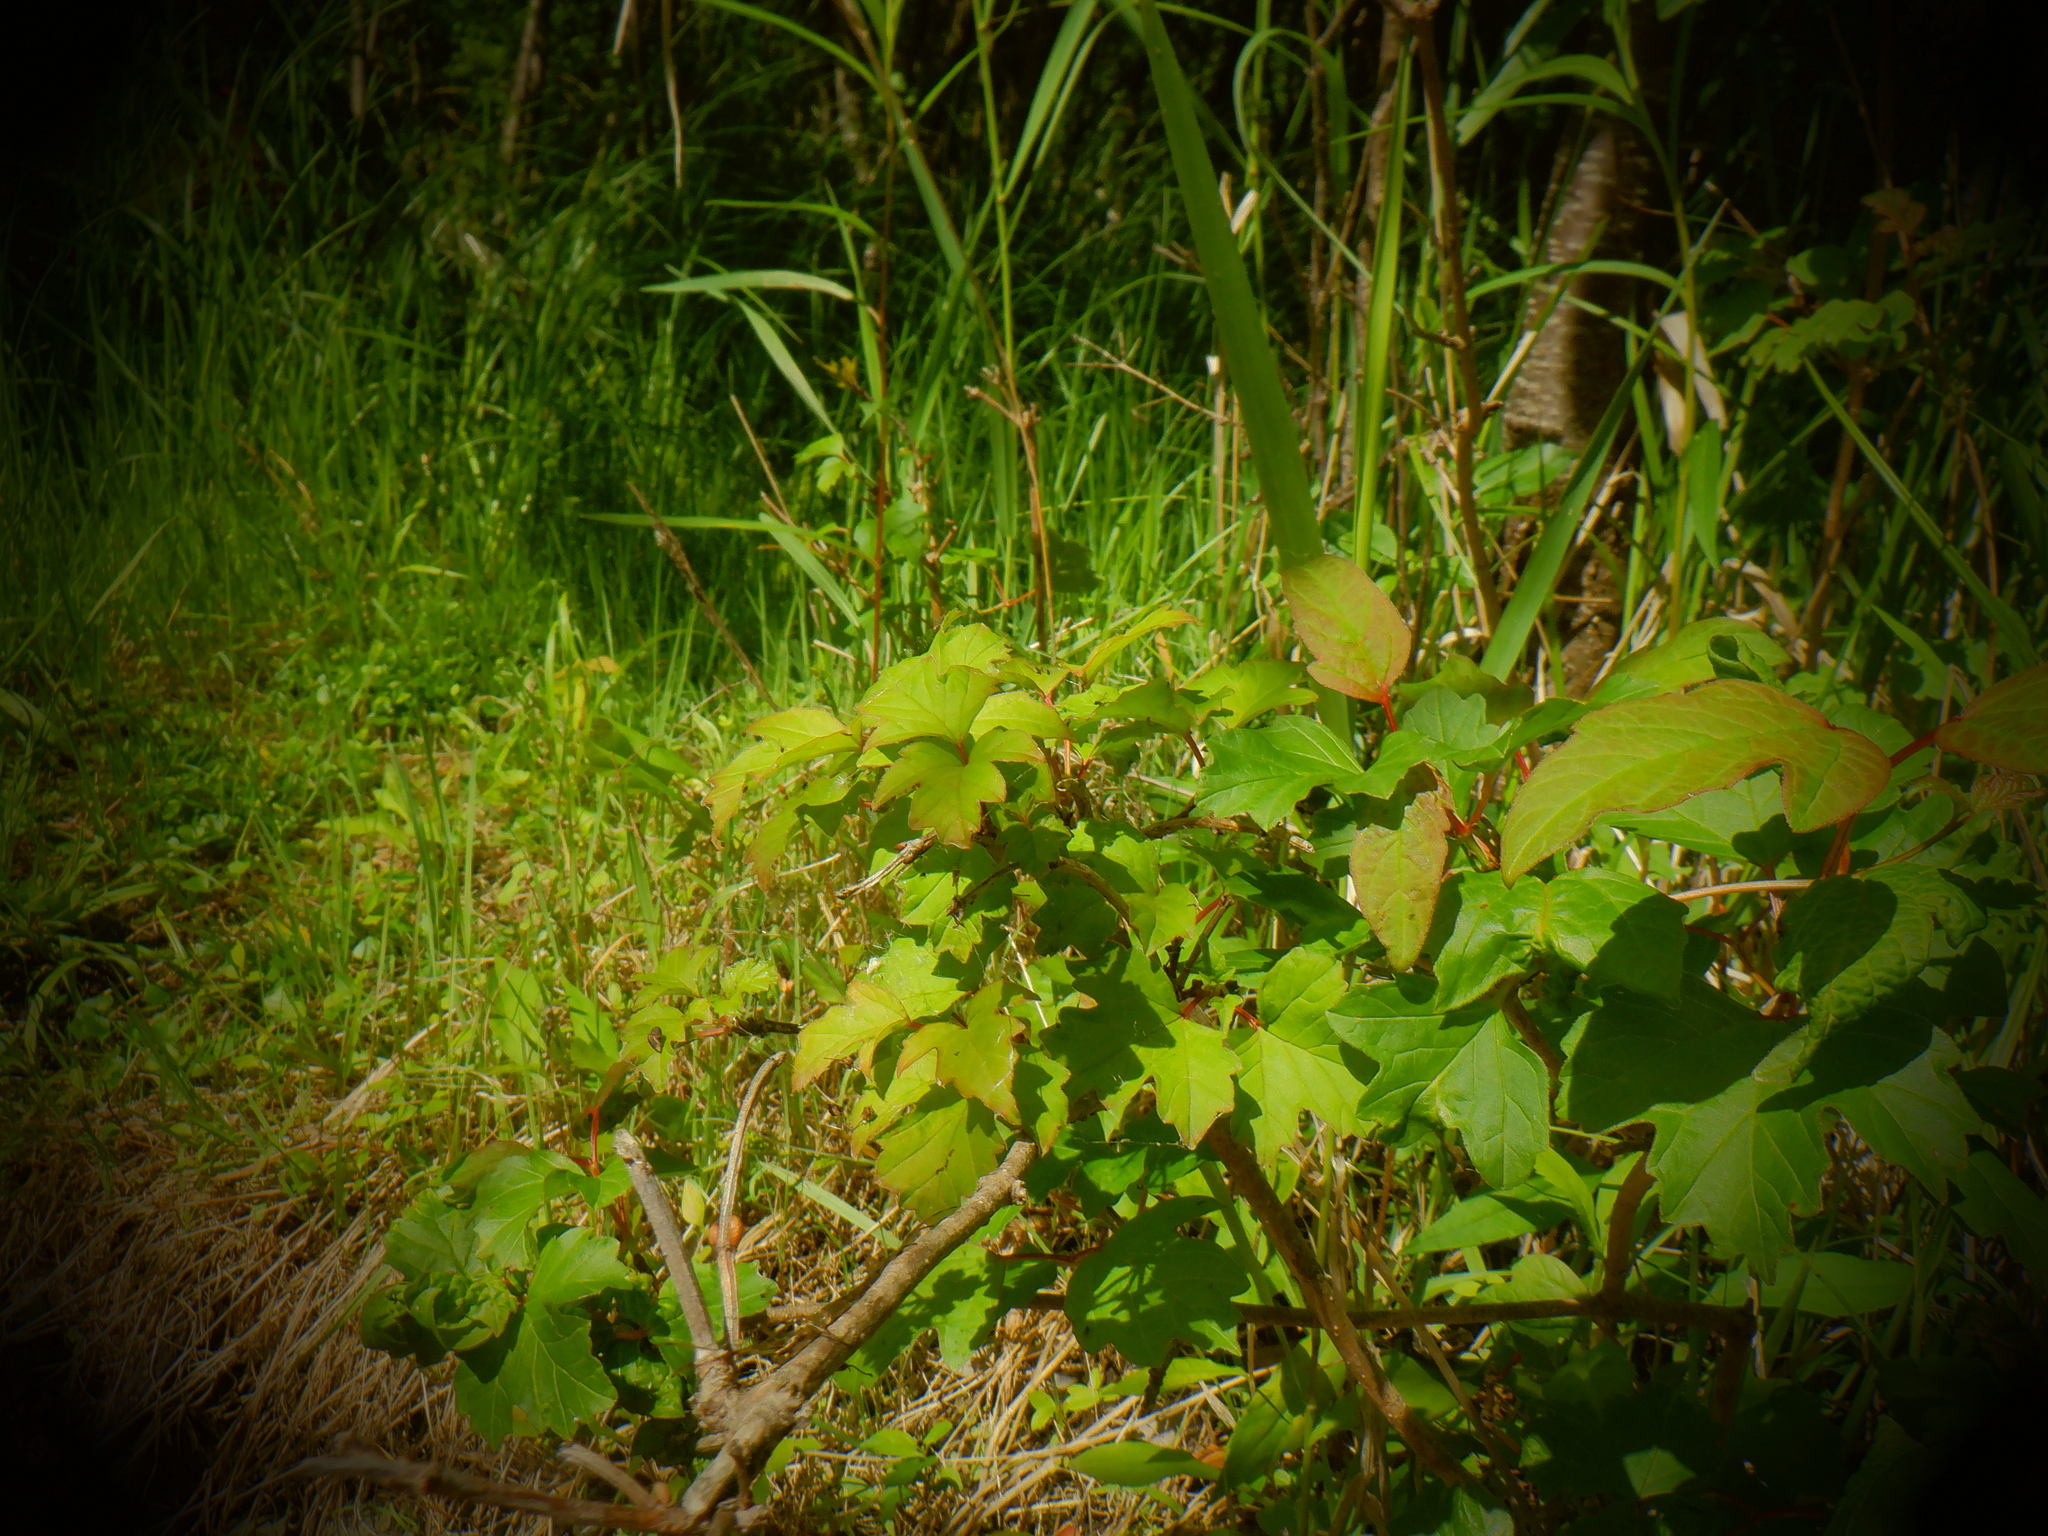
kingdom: Plantae
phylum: Tracheophyta
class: Magnoliopsida
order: Dipsacales
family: Viburnaceae
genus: Viburnum
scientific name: Viburnum opulus
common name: Guelder-rose
